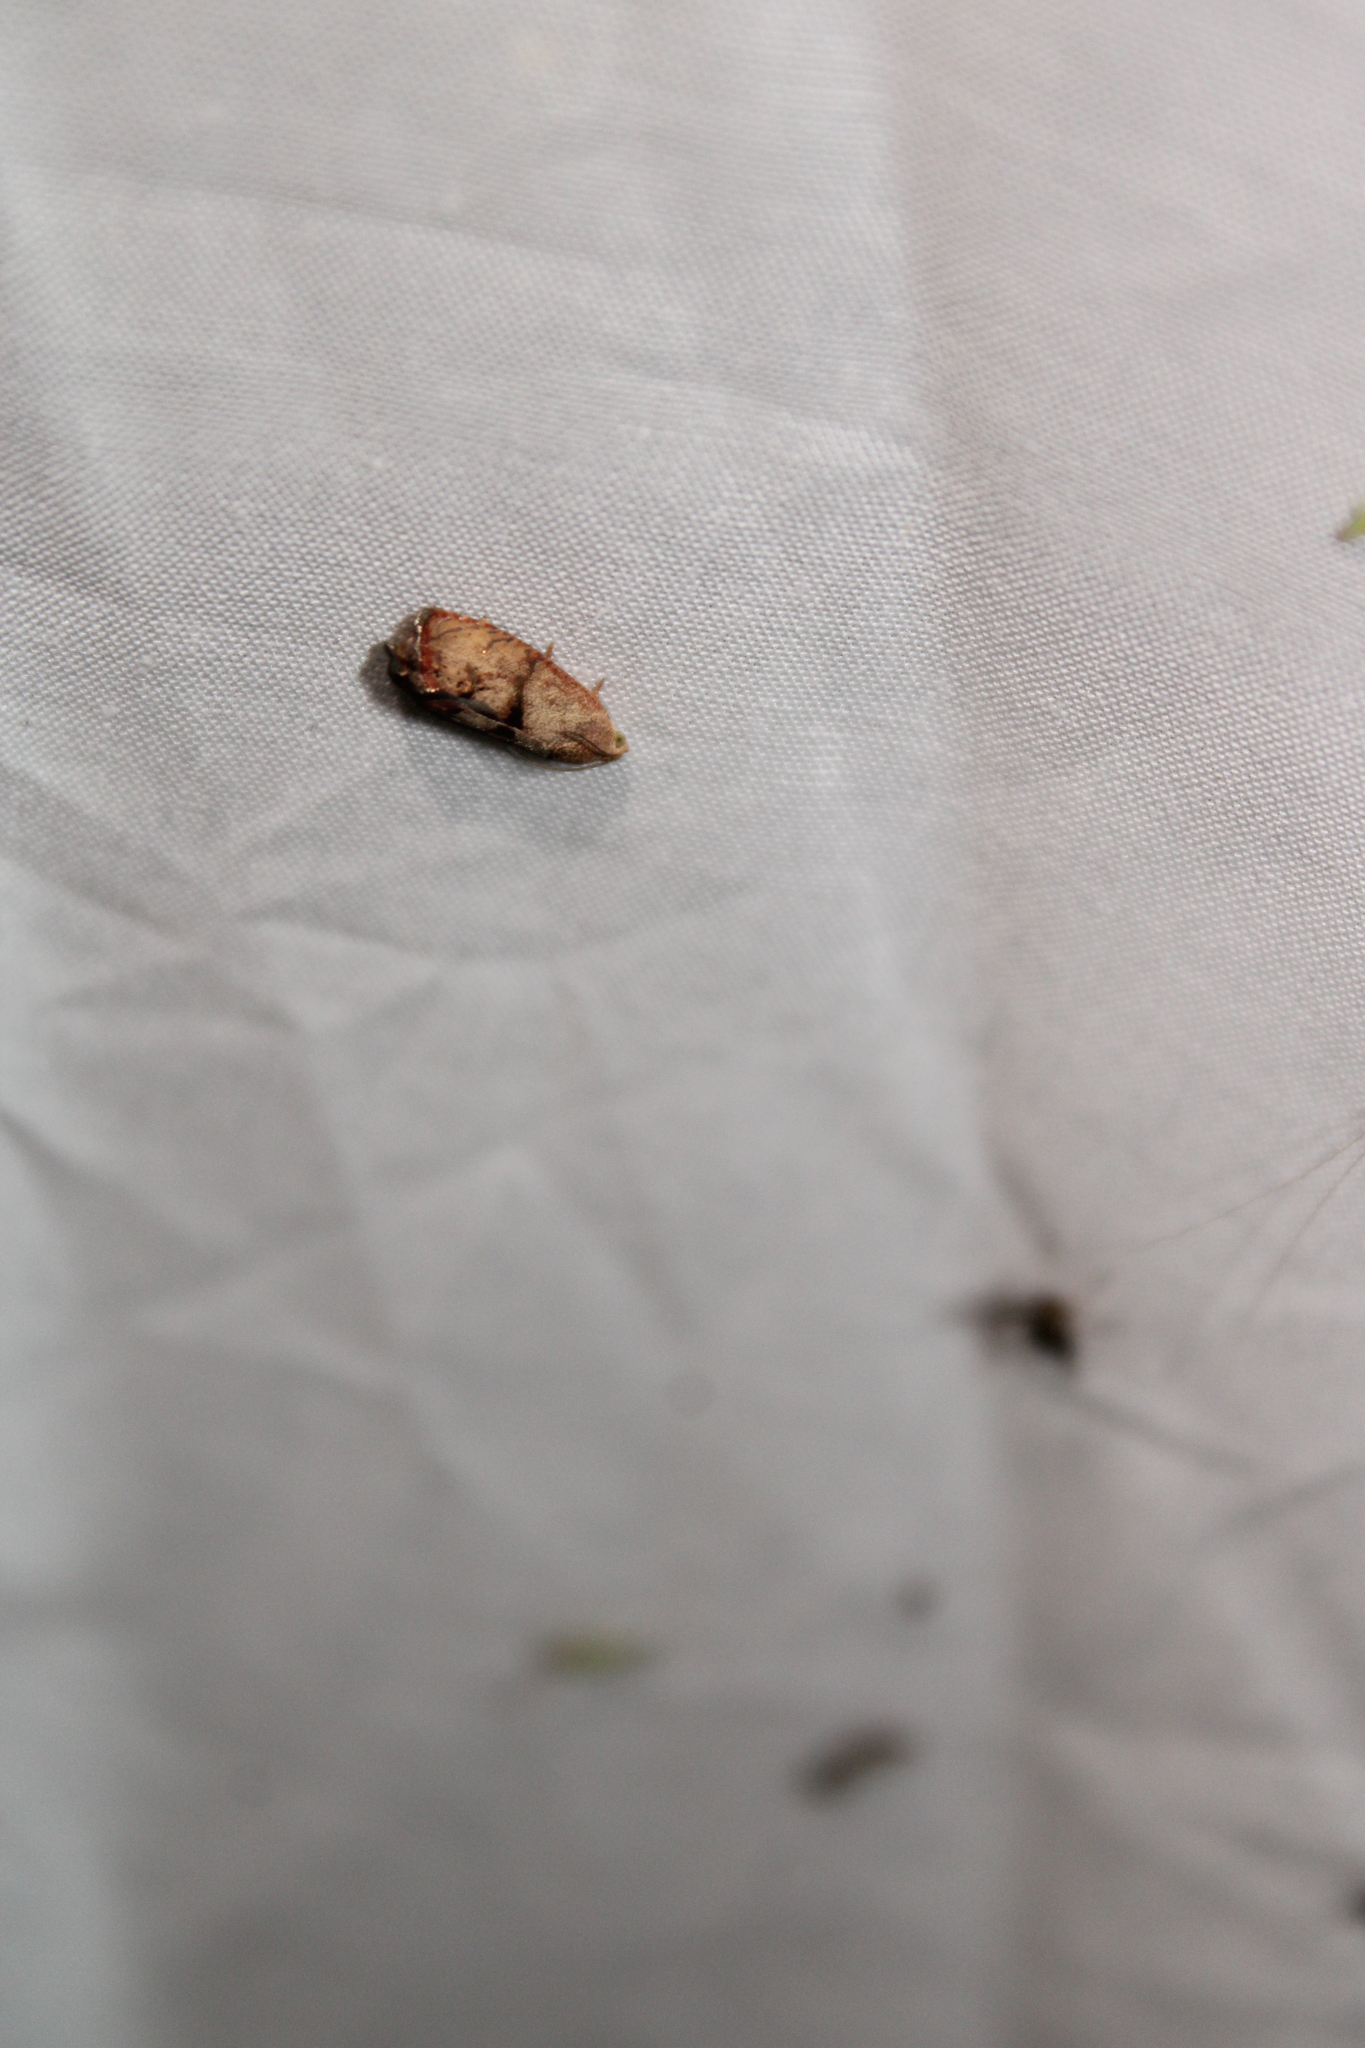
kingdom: Animalia
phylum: Arthropoda
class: Insecta
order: Lepidoptera
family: Tortricidae
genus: Cydia
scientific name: Cydia latiferreana
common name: Filbertworm moth
